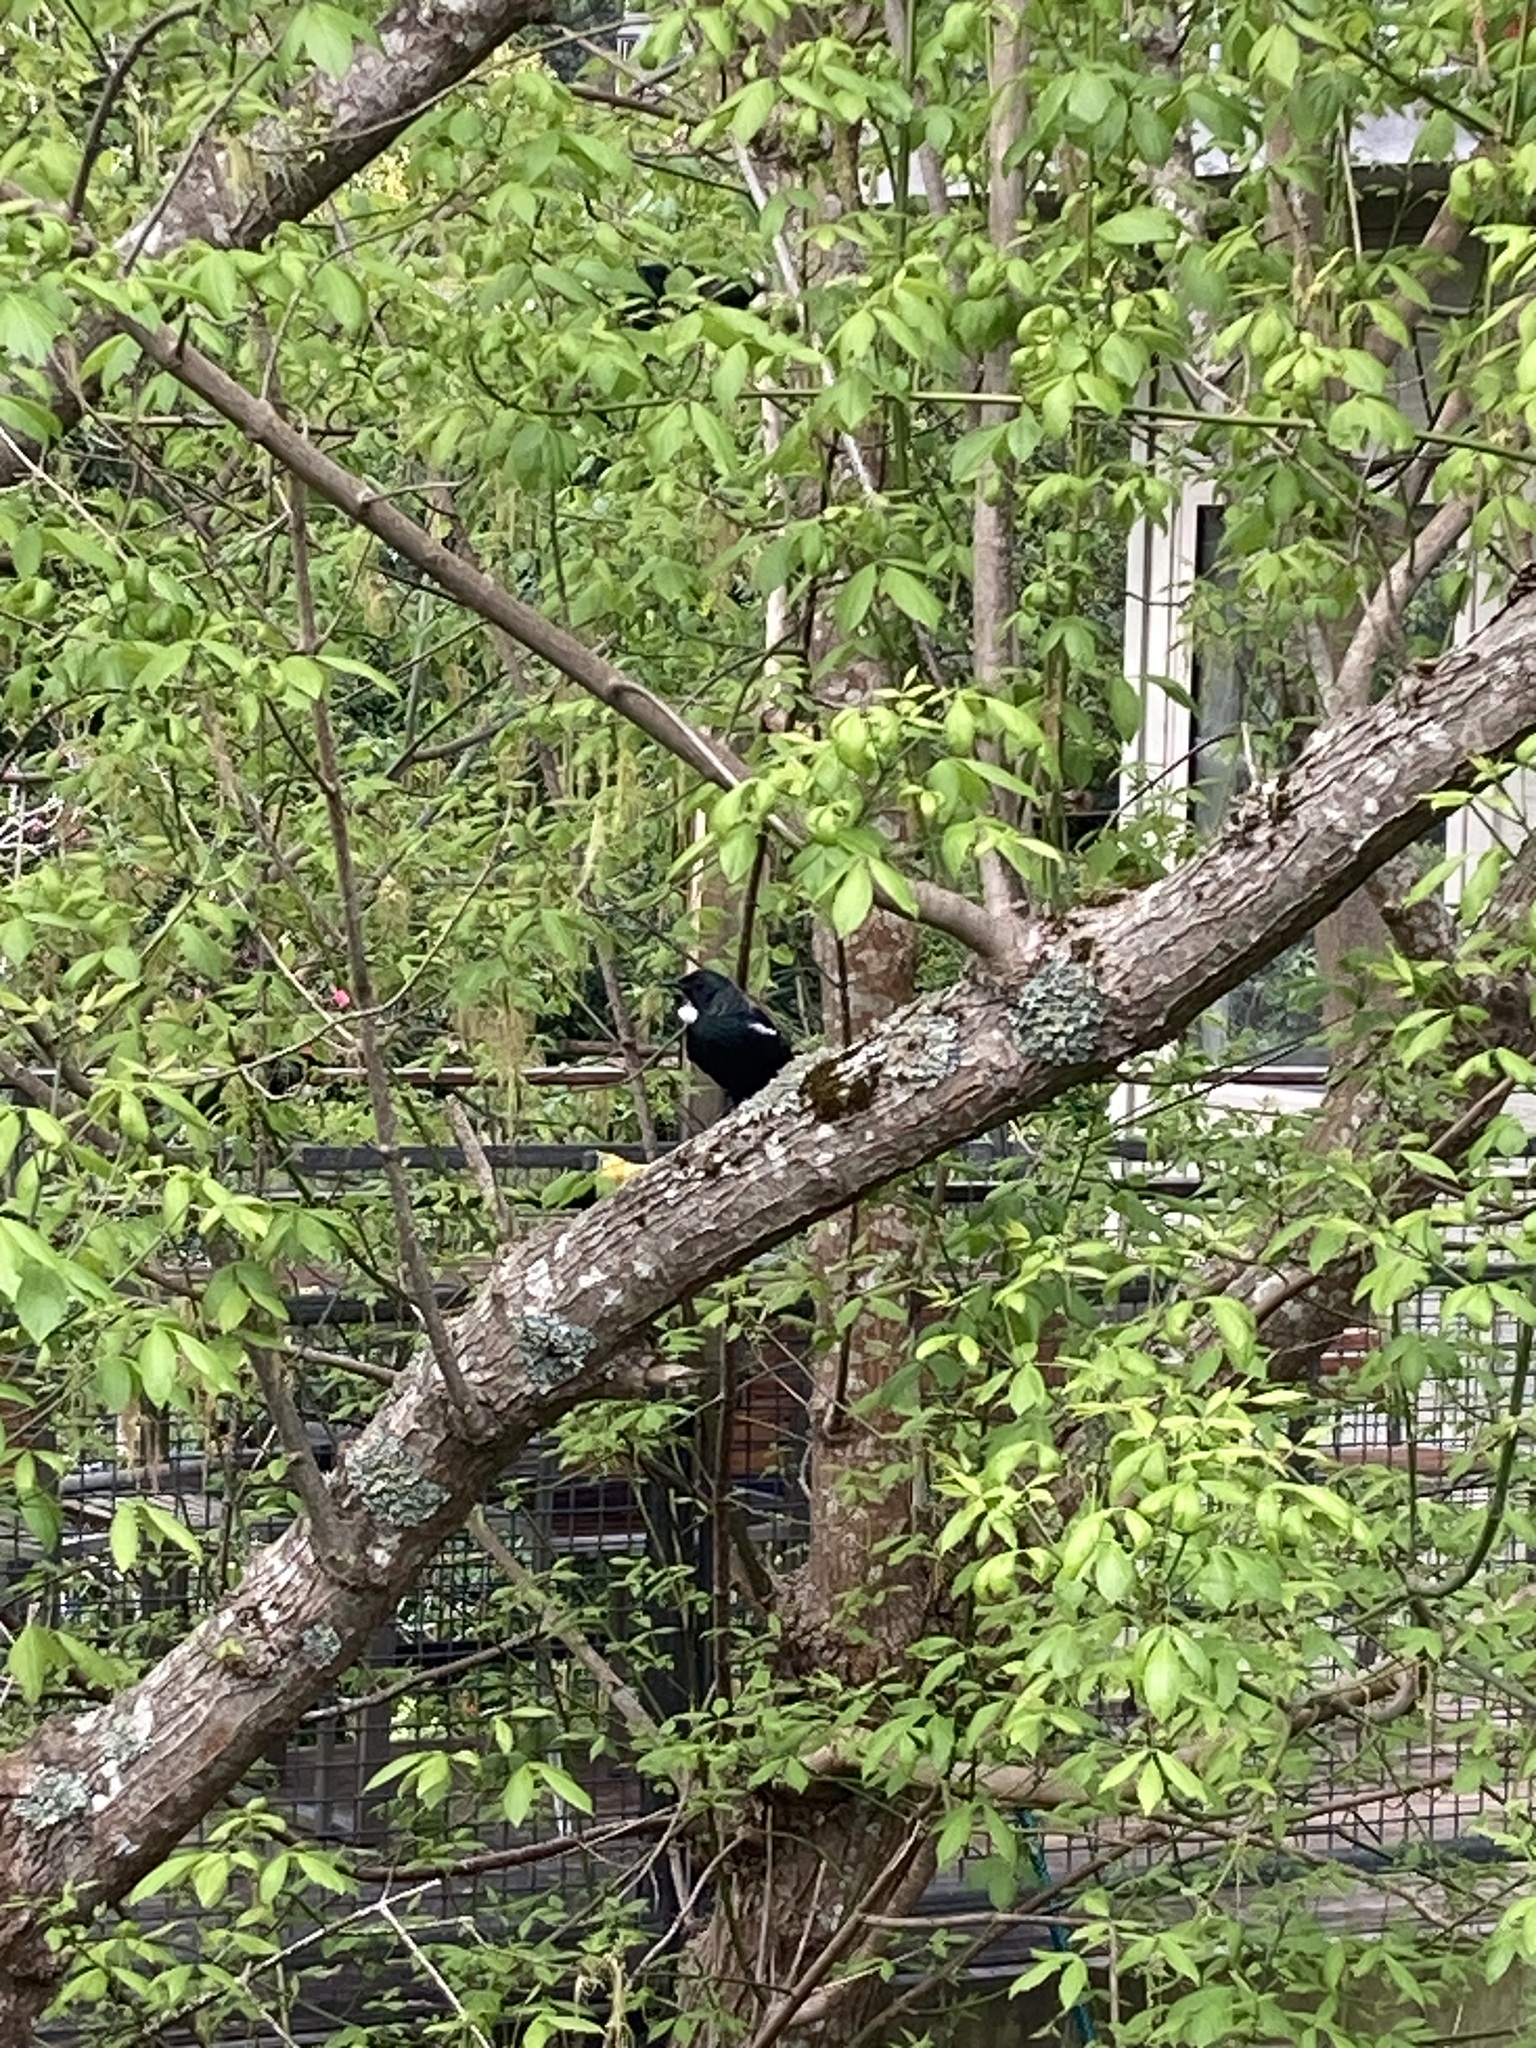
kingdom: Animalia
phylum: Chordata
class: Aves
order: Passeriformes
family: Meliphagidae
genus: Prosthemadera
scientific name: Prosthemadera novaeseelandiae
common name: Tui
